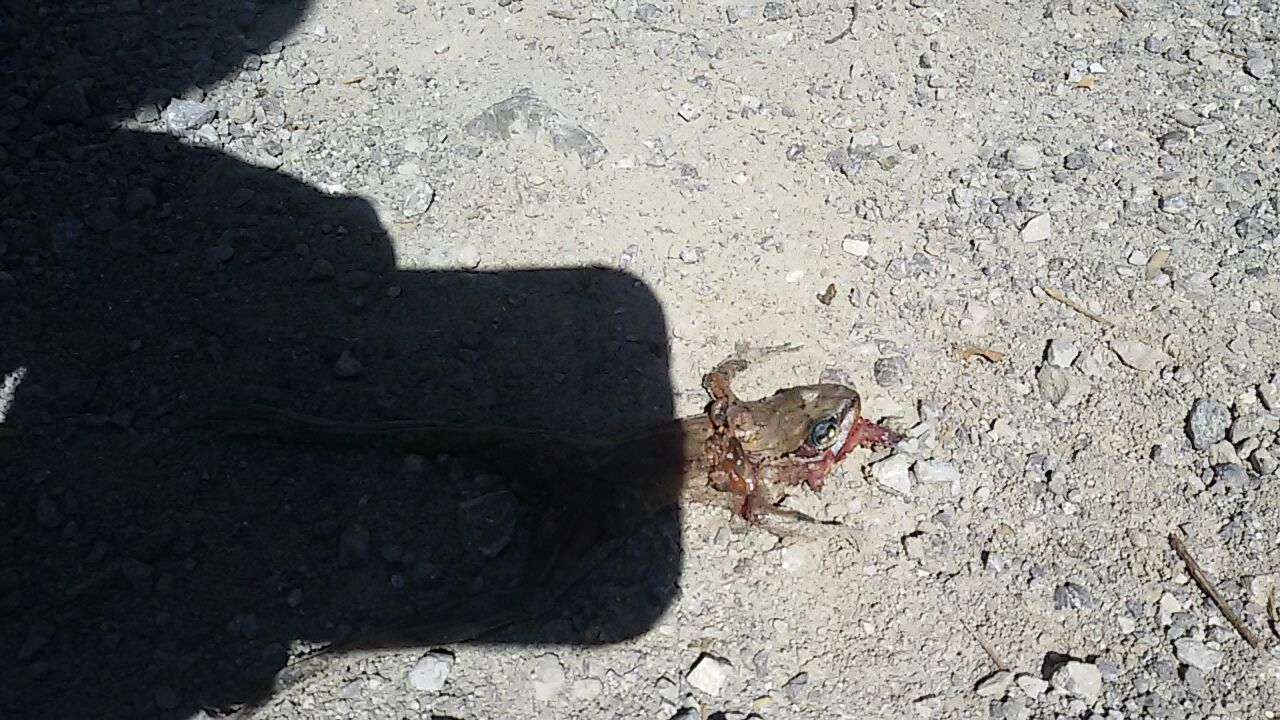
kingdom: Animalia
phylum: Chordata
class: Amphibia
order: Anura
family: Ranidae
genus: Rana
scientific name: Rana temporaria
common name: Common frog
